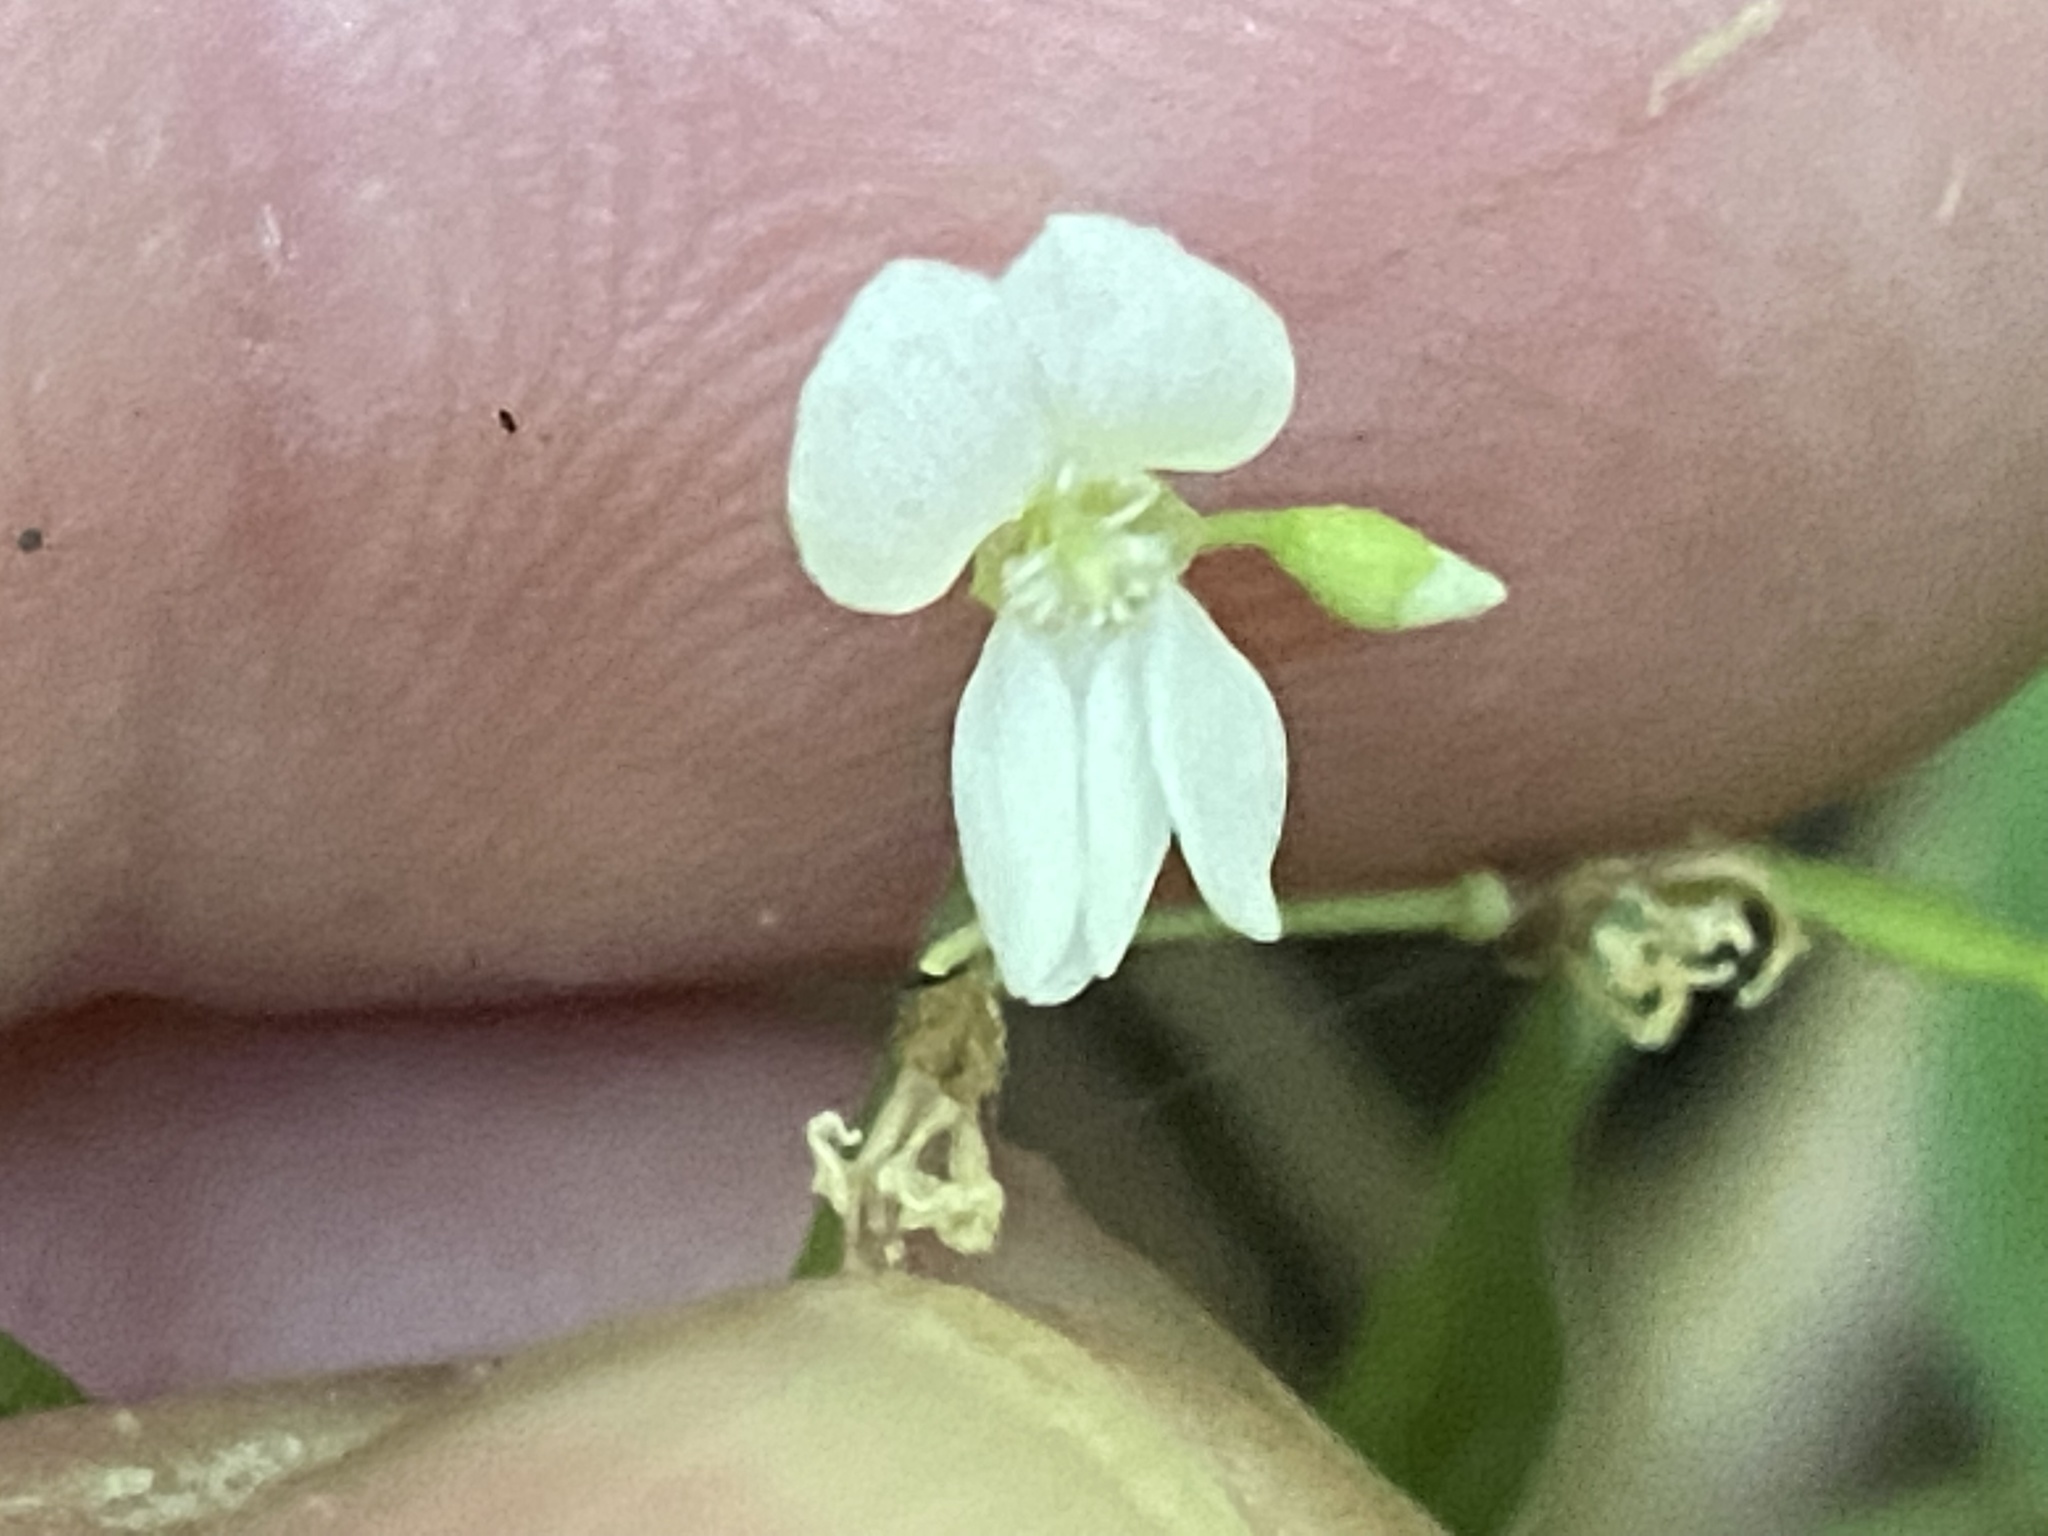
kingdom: Plantae
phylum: Tracheophyta
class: Magnoliopsida
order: Fabales
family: Fabaceae
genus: Hylodesmum
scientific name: Hylodesmum pauciflorum
